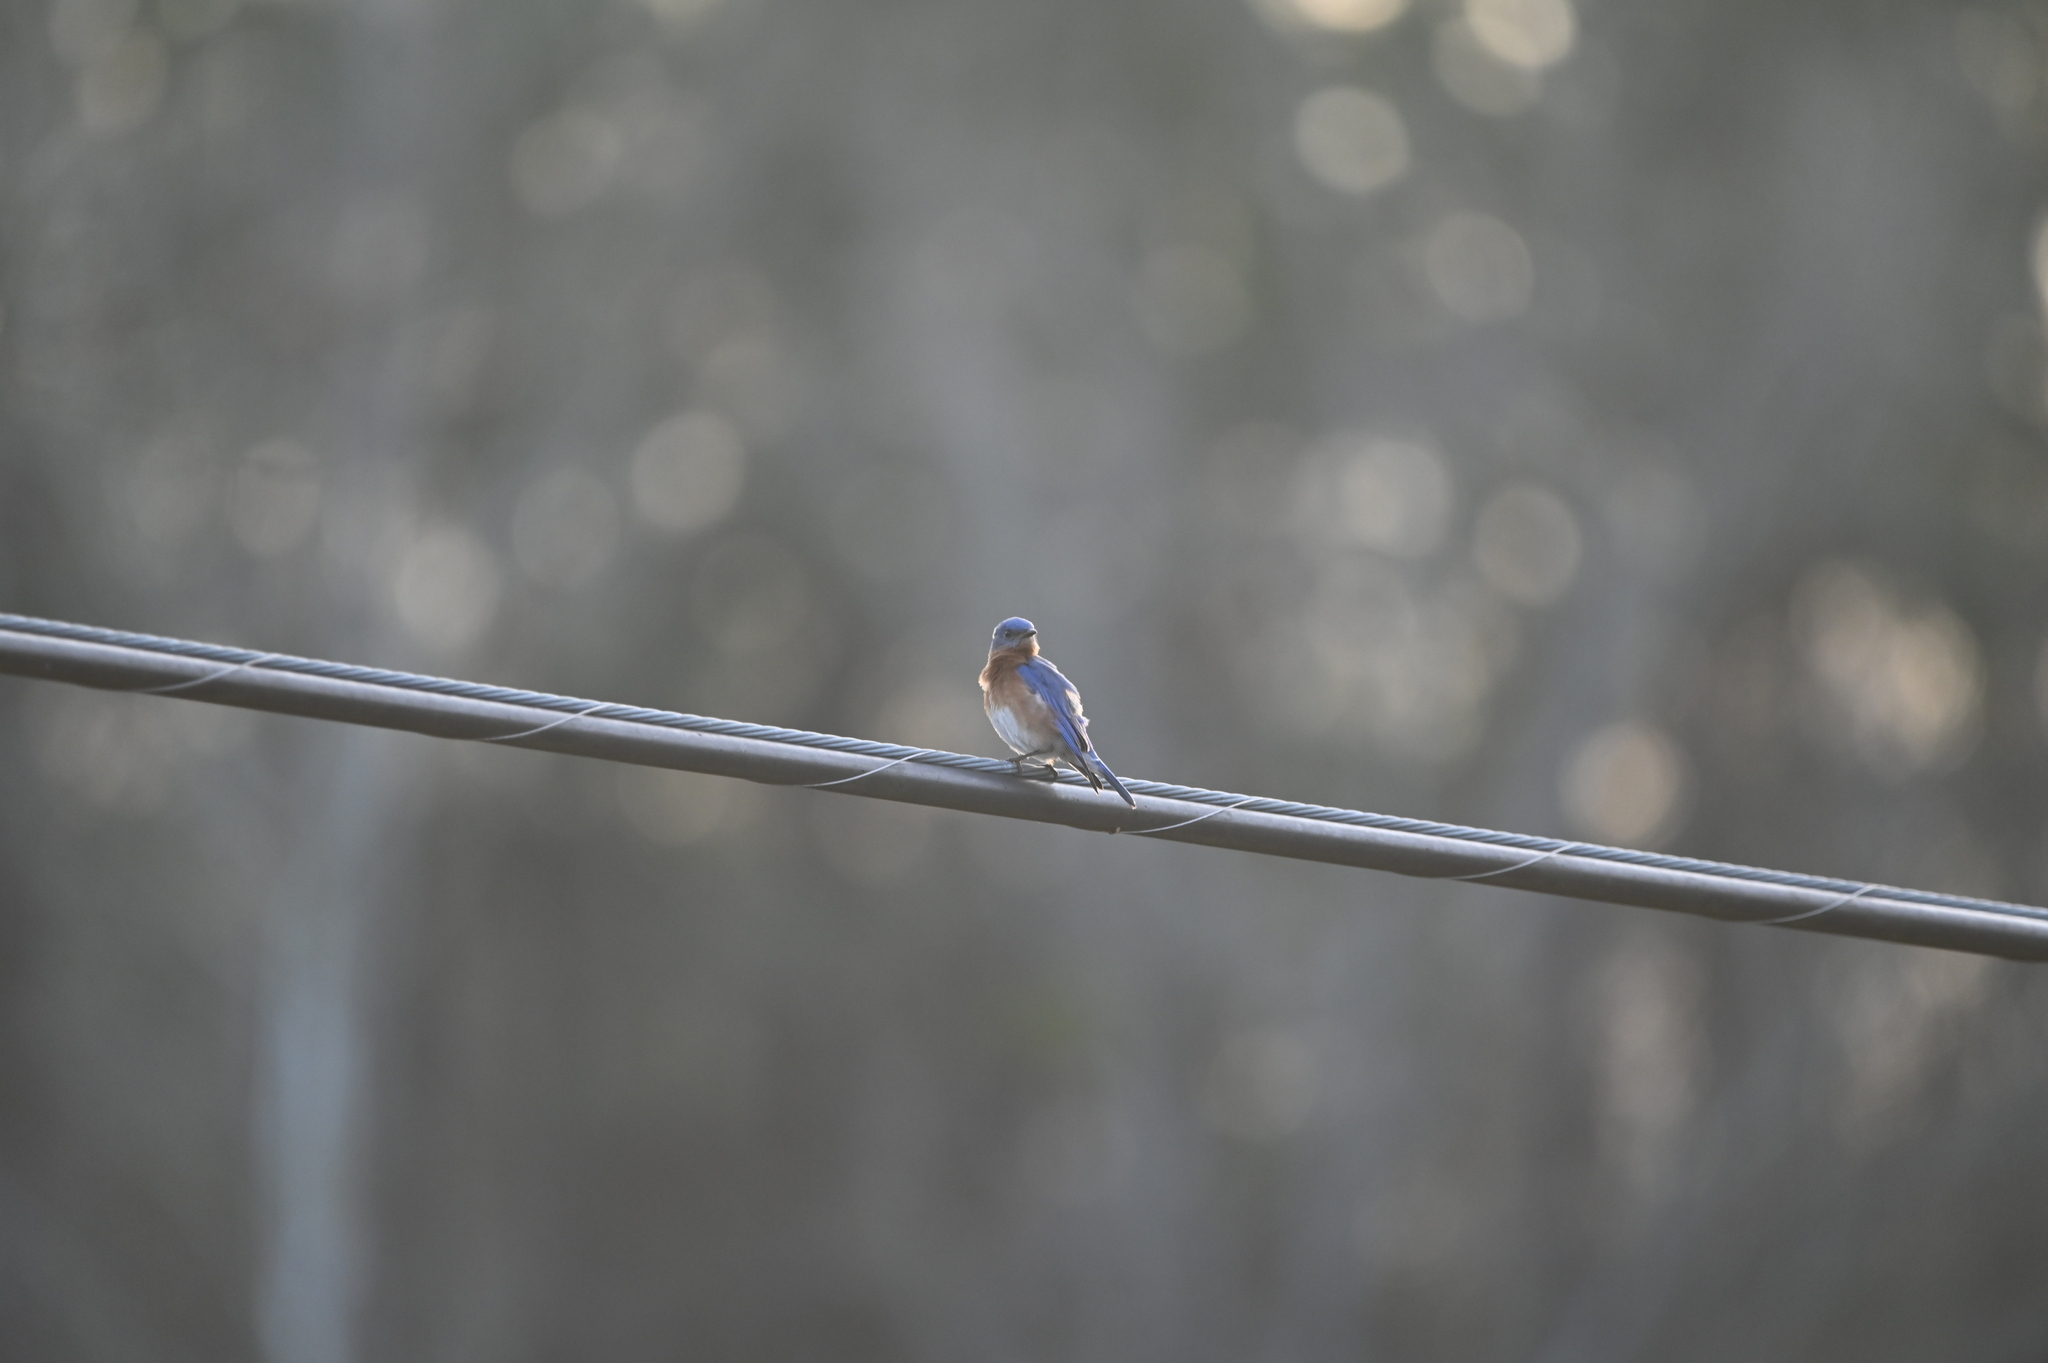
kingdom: Animalia
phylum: Chordata
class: Aves
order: Passeriformes
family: Turdidae
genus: Sialia
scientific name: Sialia sialis
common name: Eastern bluebird
